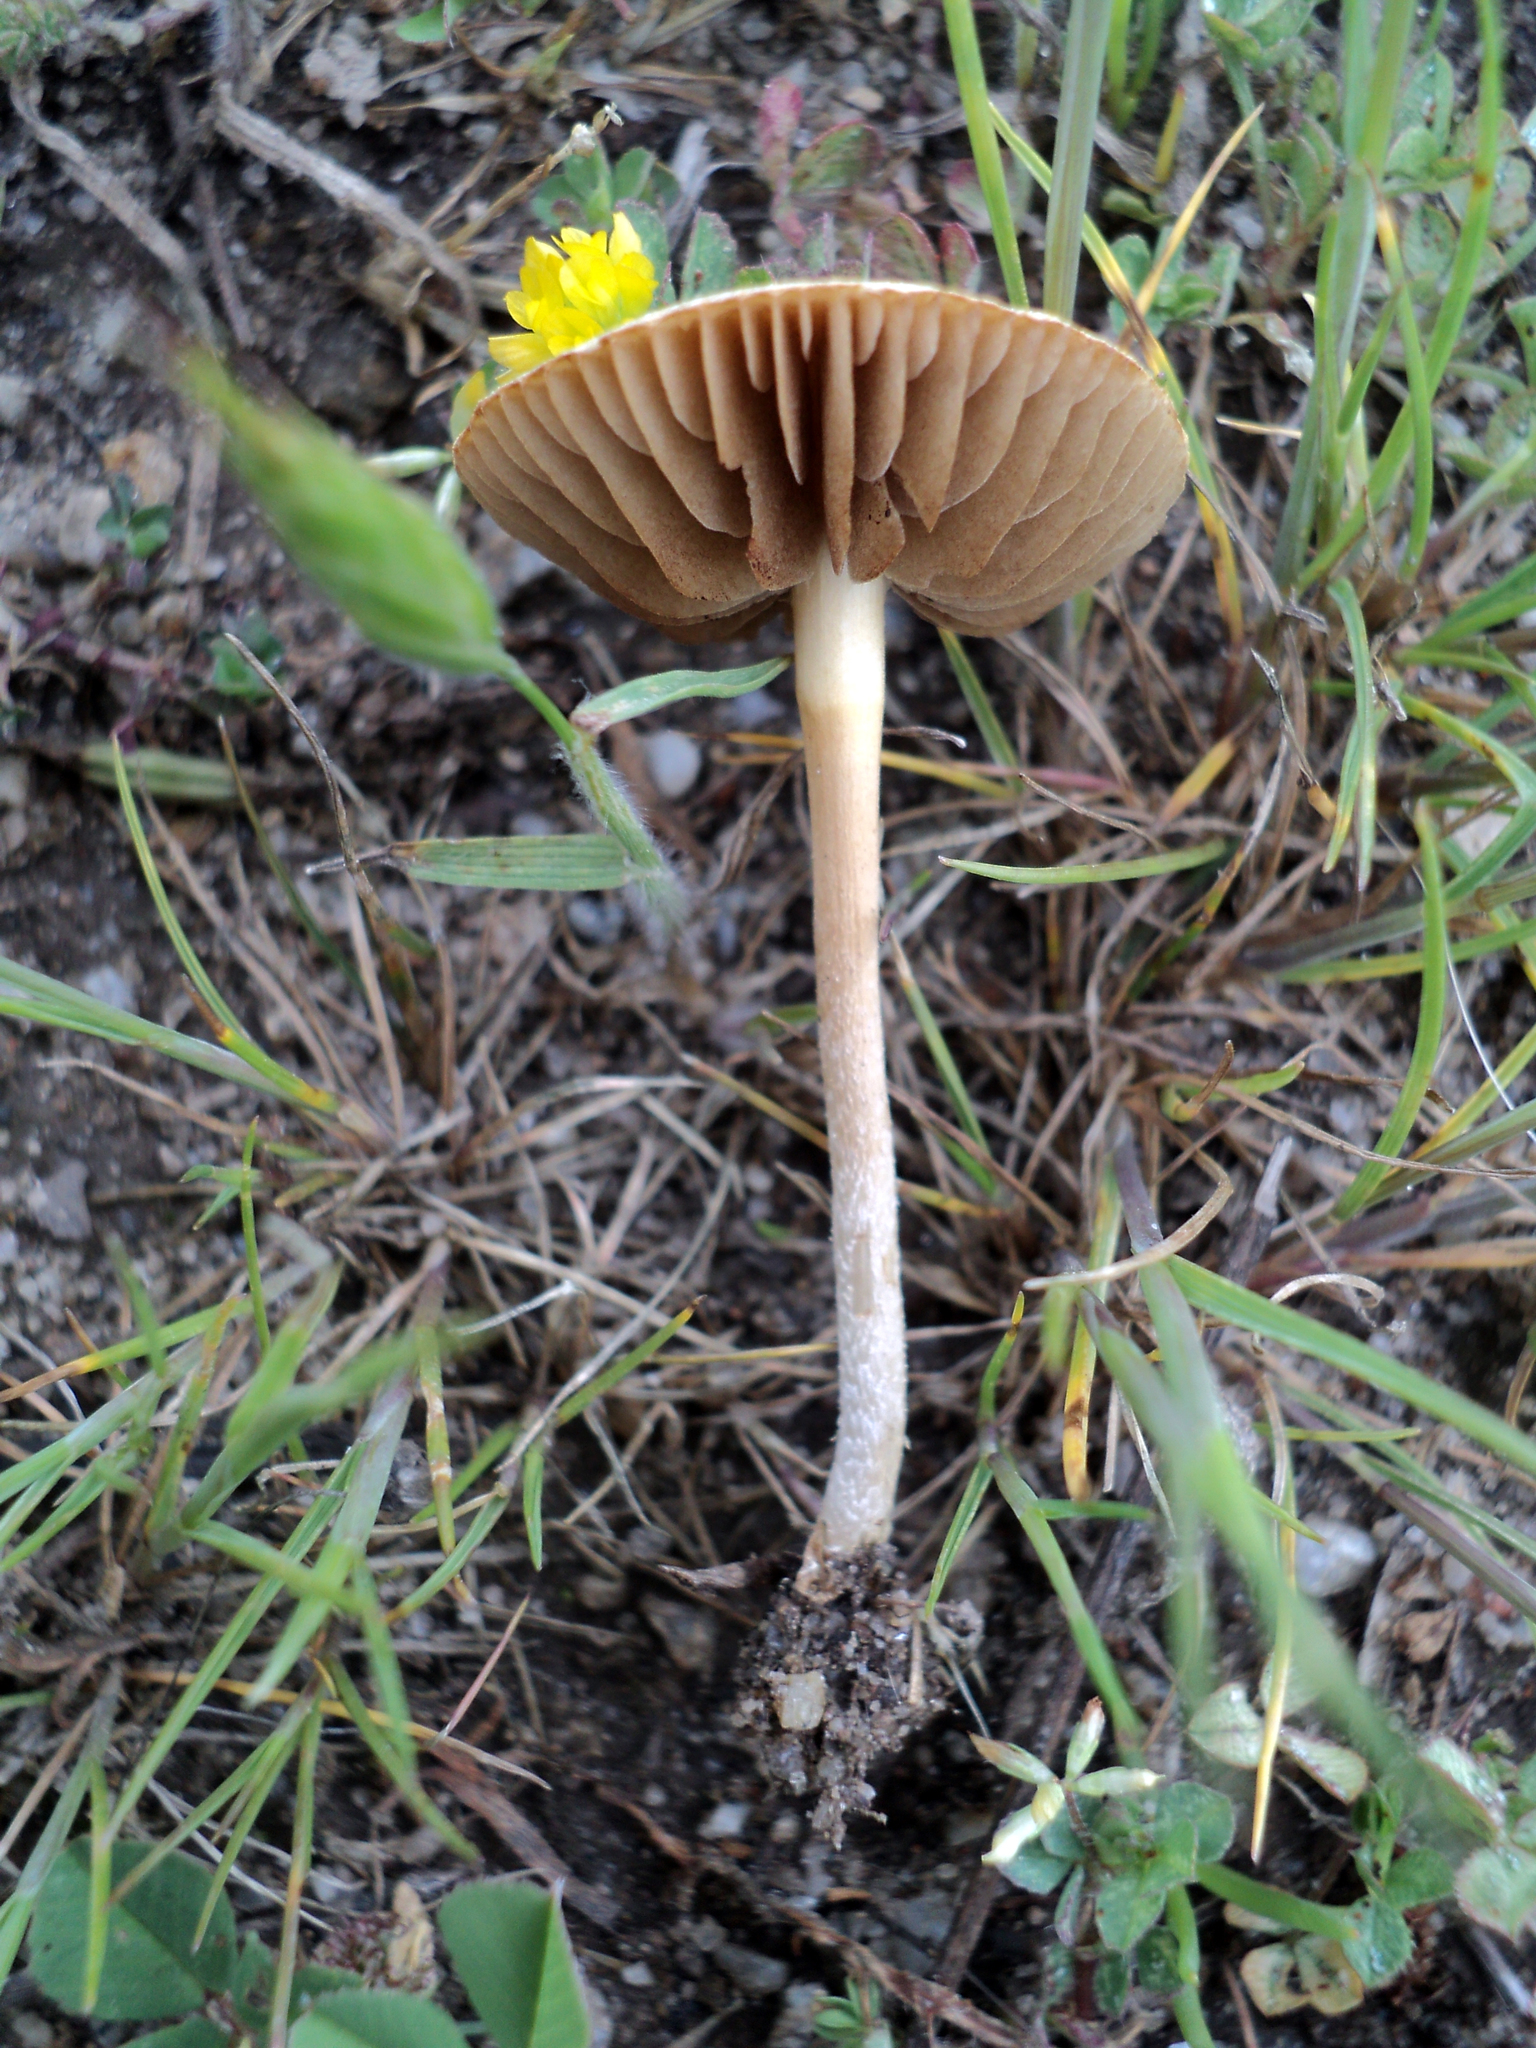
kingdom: Fungi
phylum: Basidiomycota
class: Agaricomycetes
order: Agaricales
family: Strophariaceae
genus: Agrocybe
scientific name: Agrocybe pediades
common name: Common fieldcap
